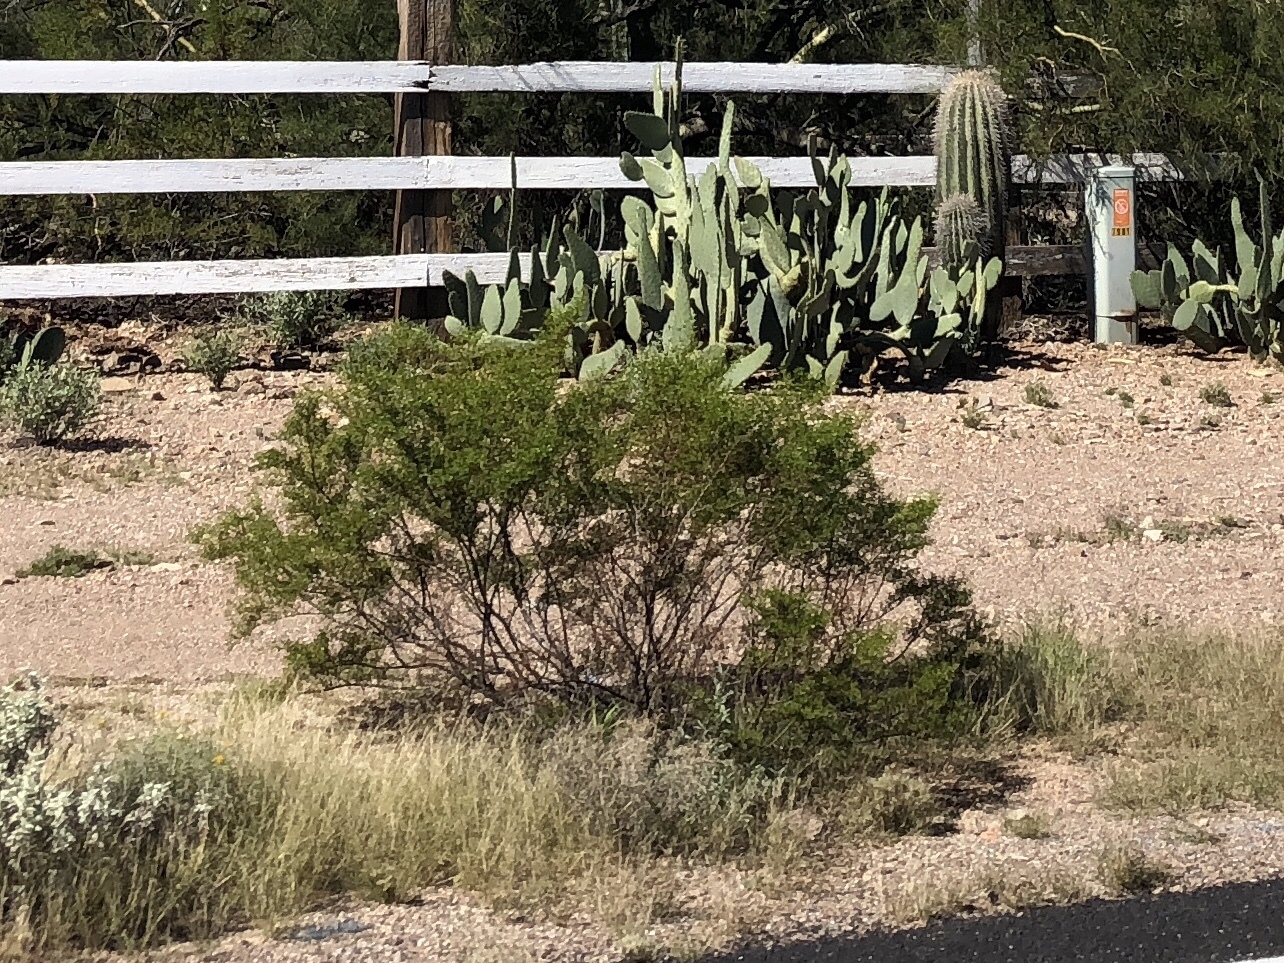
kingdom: Plantae
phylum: Tracheophyta
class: Magnoliopsida
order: Zygophyllales
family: Zygophyllaceae
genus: Larrea
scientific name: Larrea tridentata
